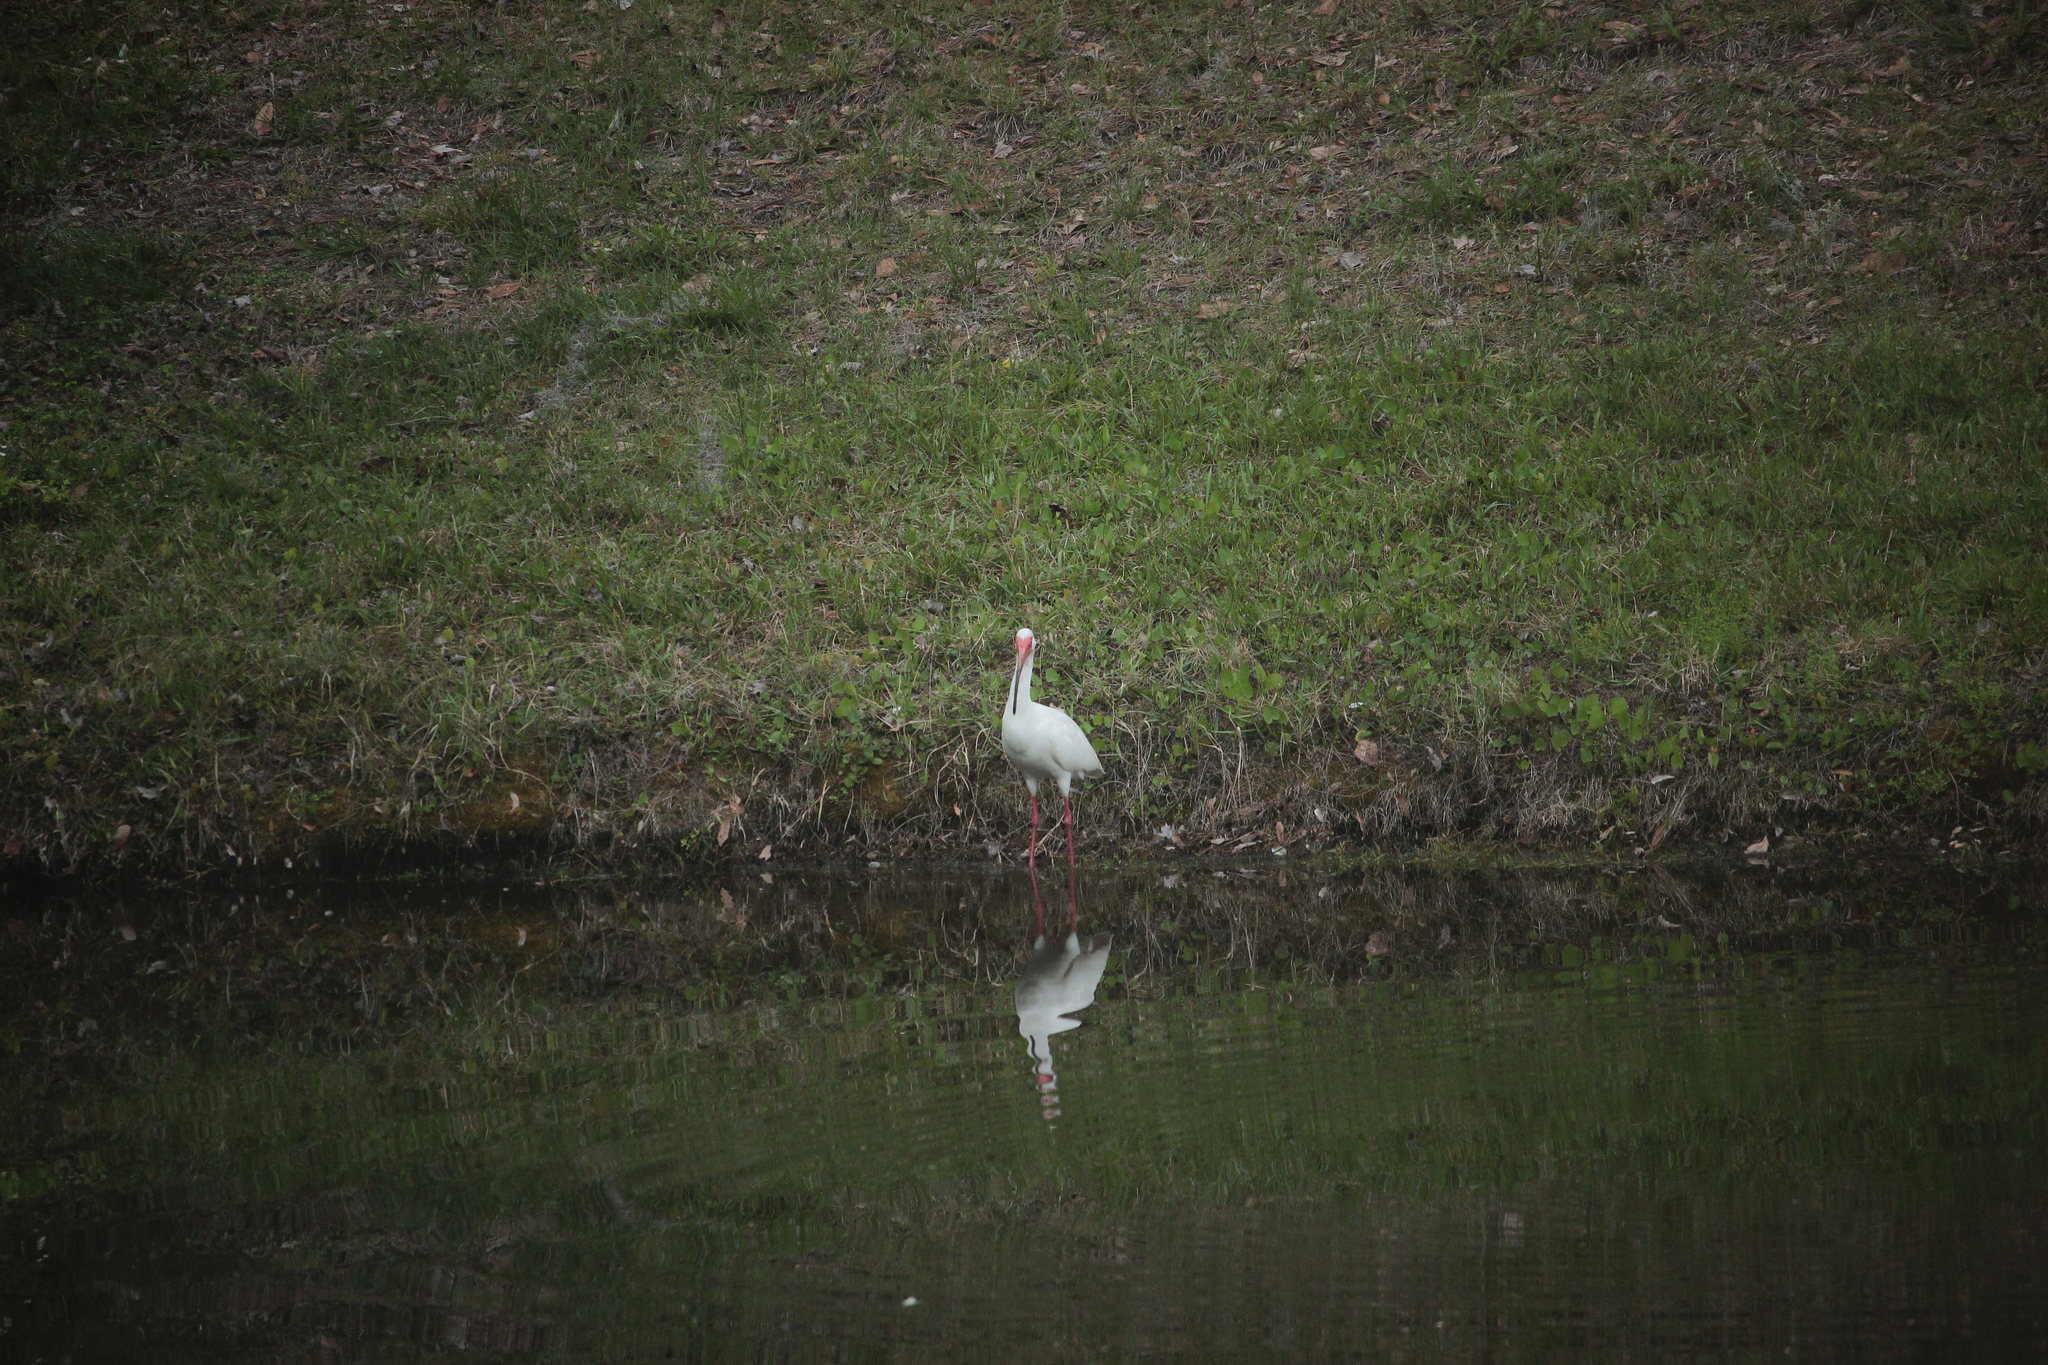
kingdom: Animalia
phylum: Chordata
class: Aves
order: Pelecaniformes
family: Threskiornithidae
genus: Eudocimus
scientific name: Eudocimus albus
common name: White ibis
